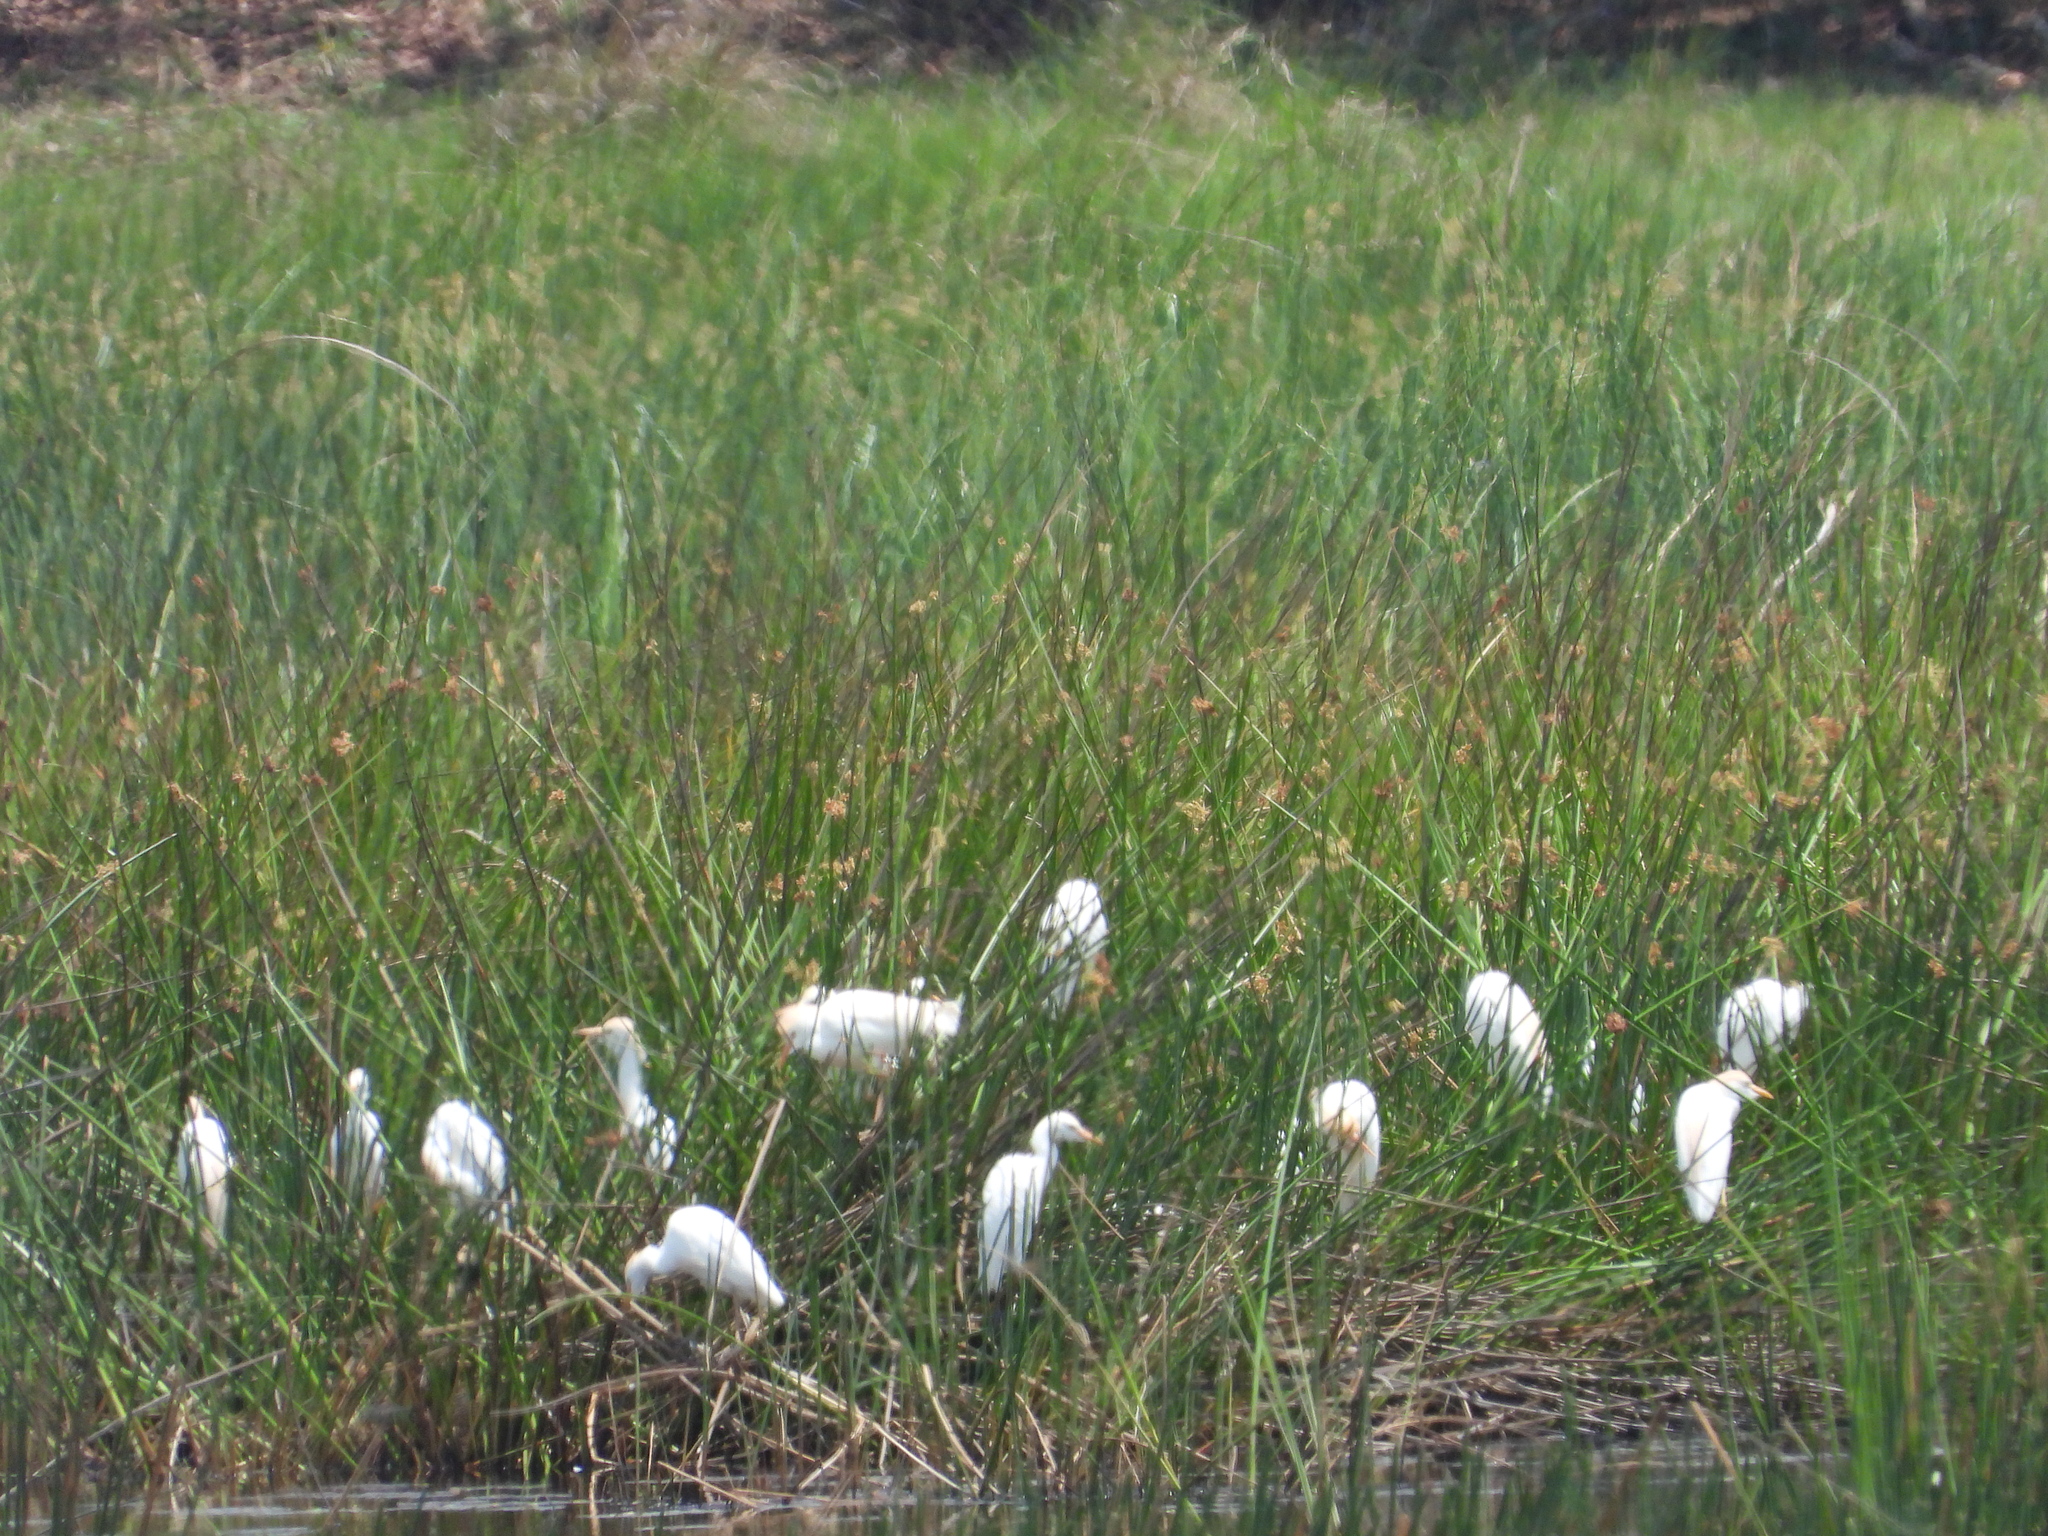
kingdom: Animalia
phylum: Chordata
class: Aves
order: Pelecaniformes
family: Ardeidae
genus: Bubulcus
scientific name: Bubulcus ibis
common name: Cattle egret
